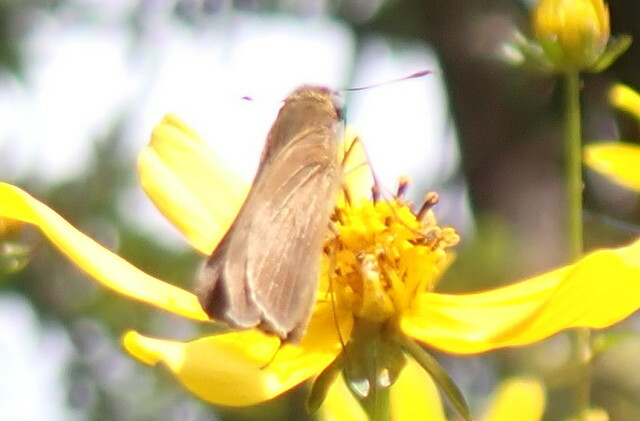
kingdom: Animalia
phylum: Arthropoda
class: Insecta
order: Lepidoptera
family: Hesperiidae
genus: Panoquina
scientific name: Panoquina ocola
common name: Ocola skipper
